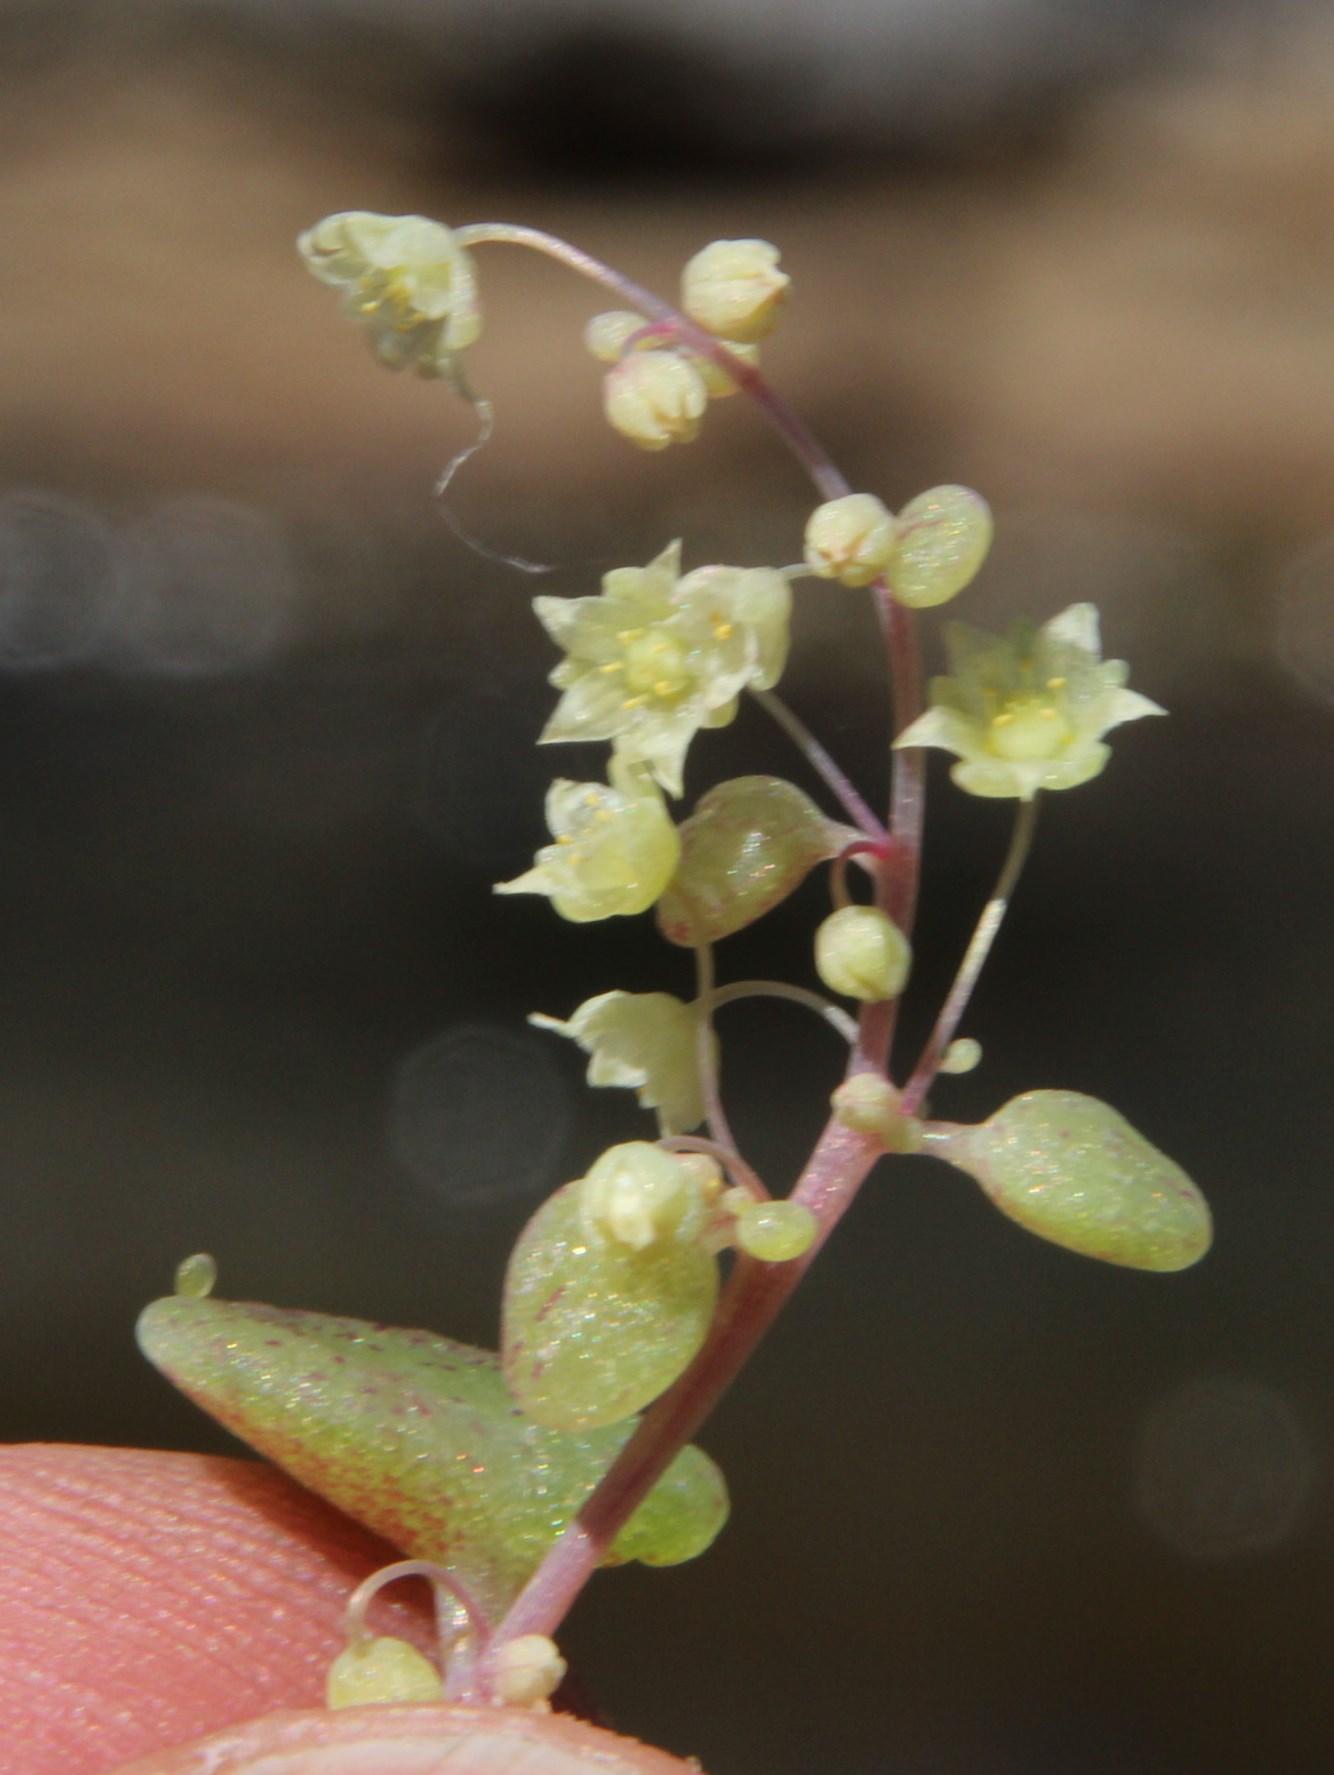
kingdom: Plantae
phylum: Tracheophyta
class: Magnoliopsida
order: Saxifragales
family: Crassulaceae
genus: Crassula
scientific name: Crassula nemorosa
